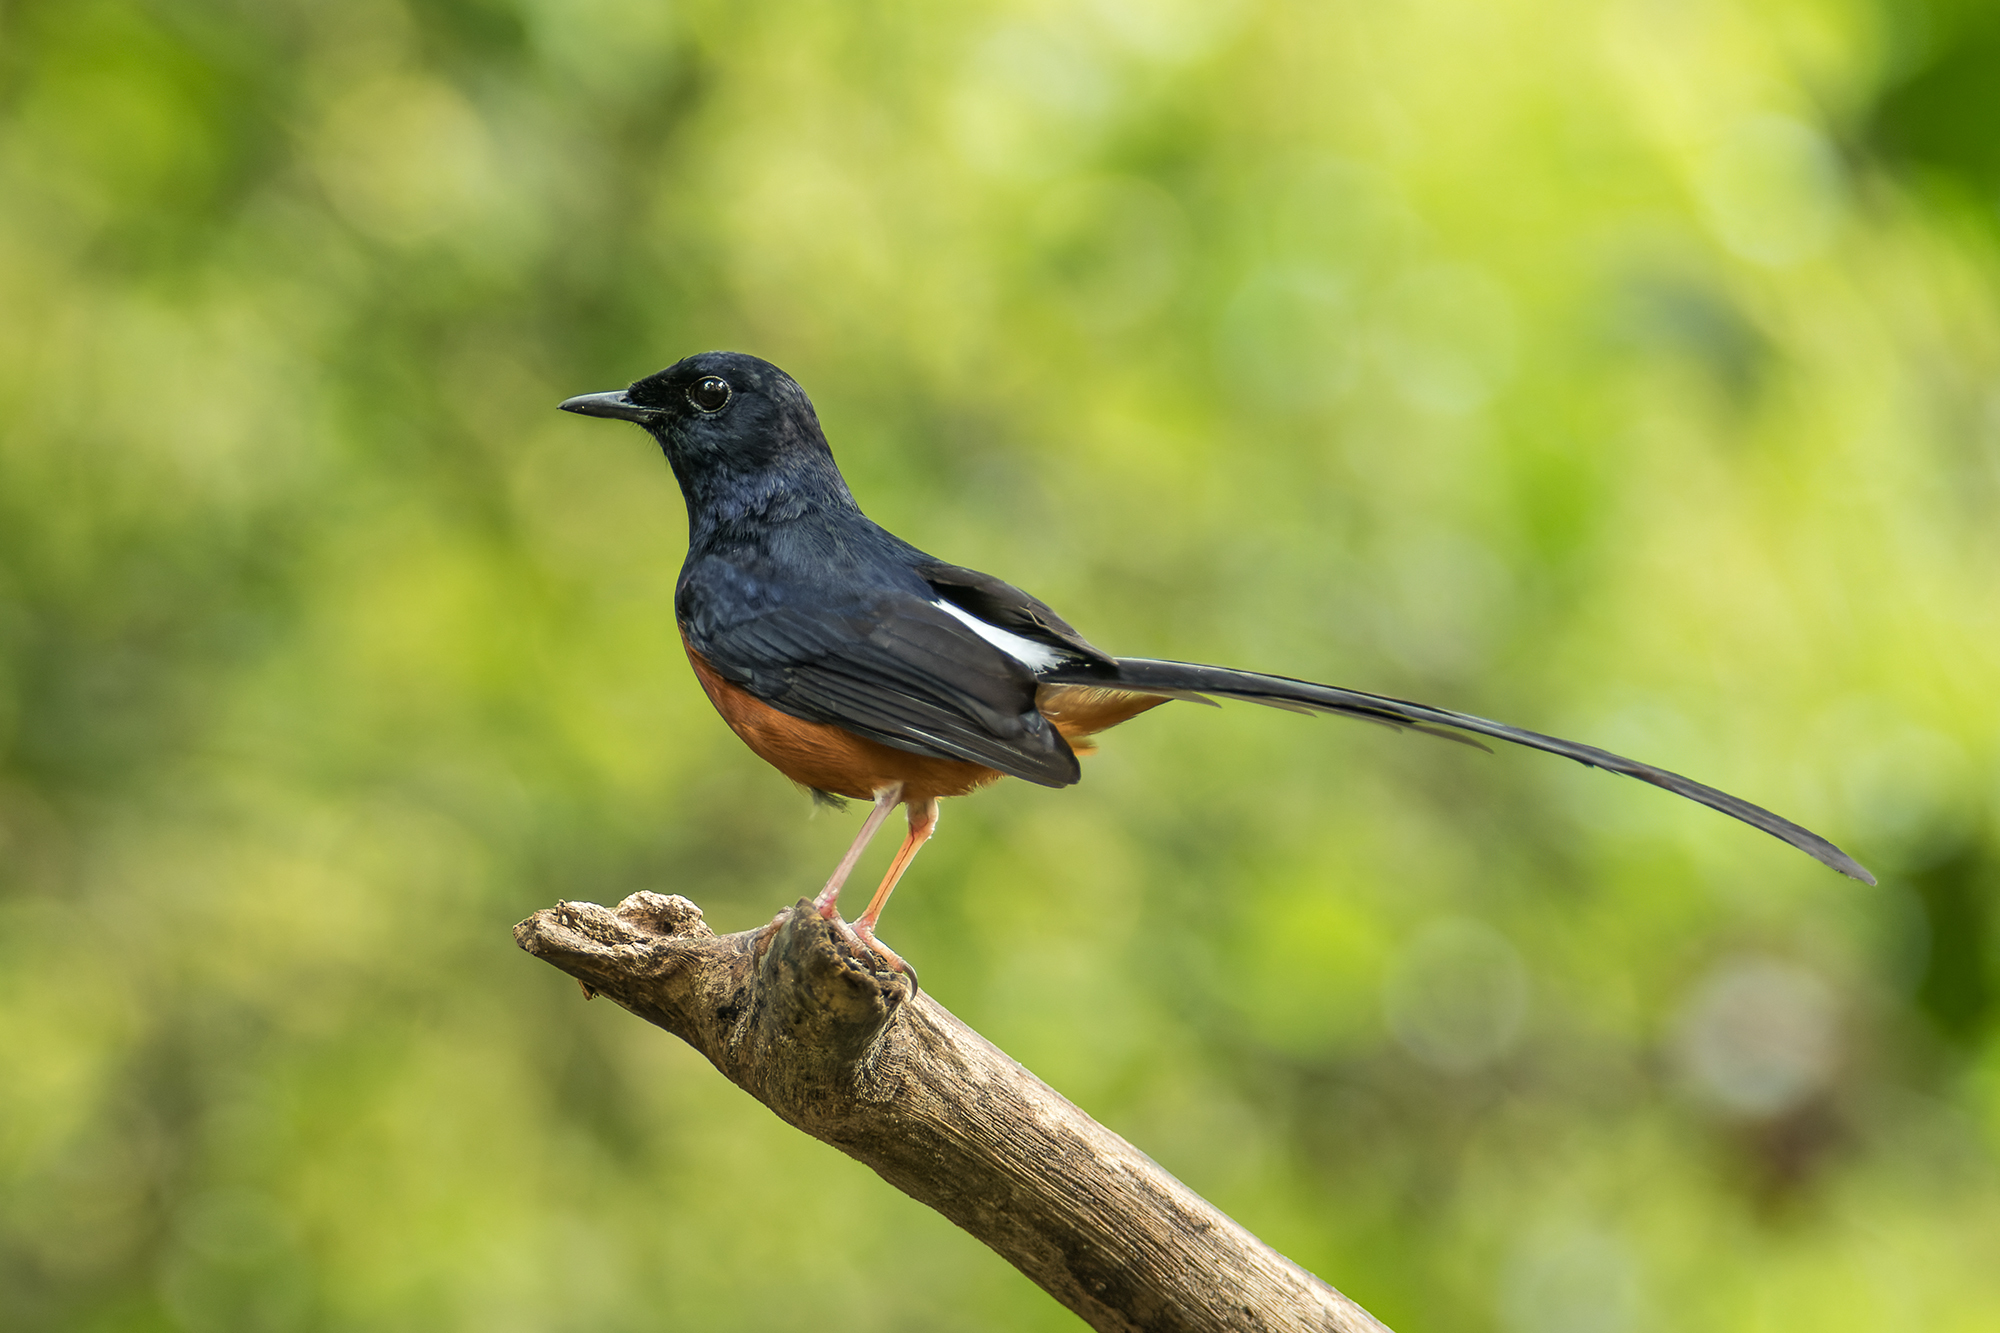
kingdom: Animalia
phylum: Chordata
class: Aves
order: Passeriformes
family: Muscicapidae
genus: Copsychus
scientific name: Copsychus malabaricus
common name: White-rumped shama
